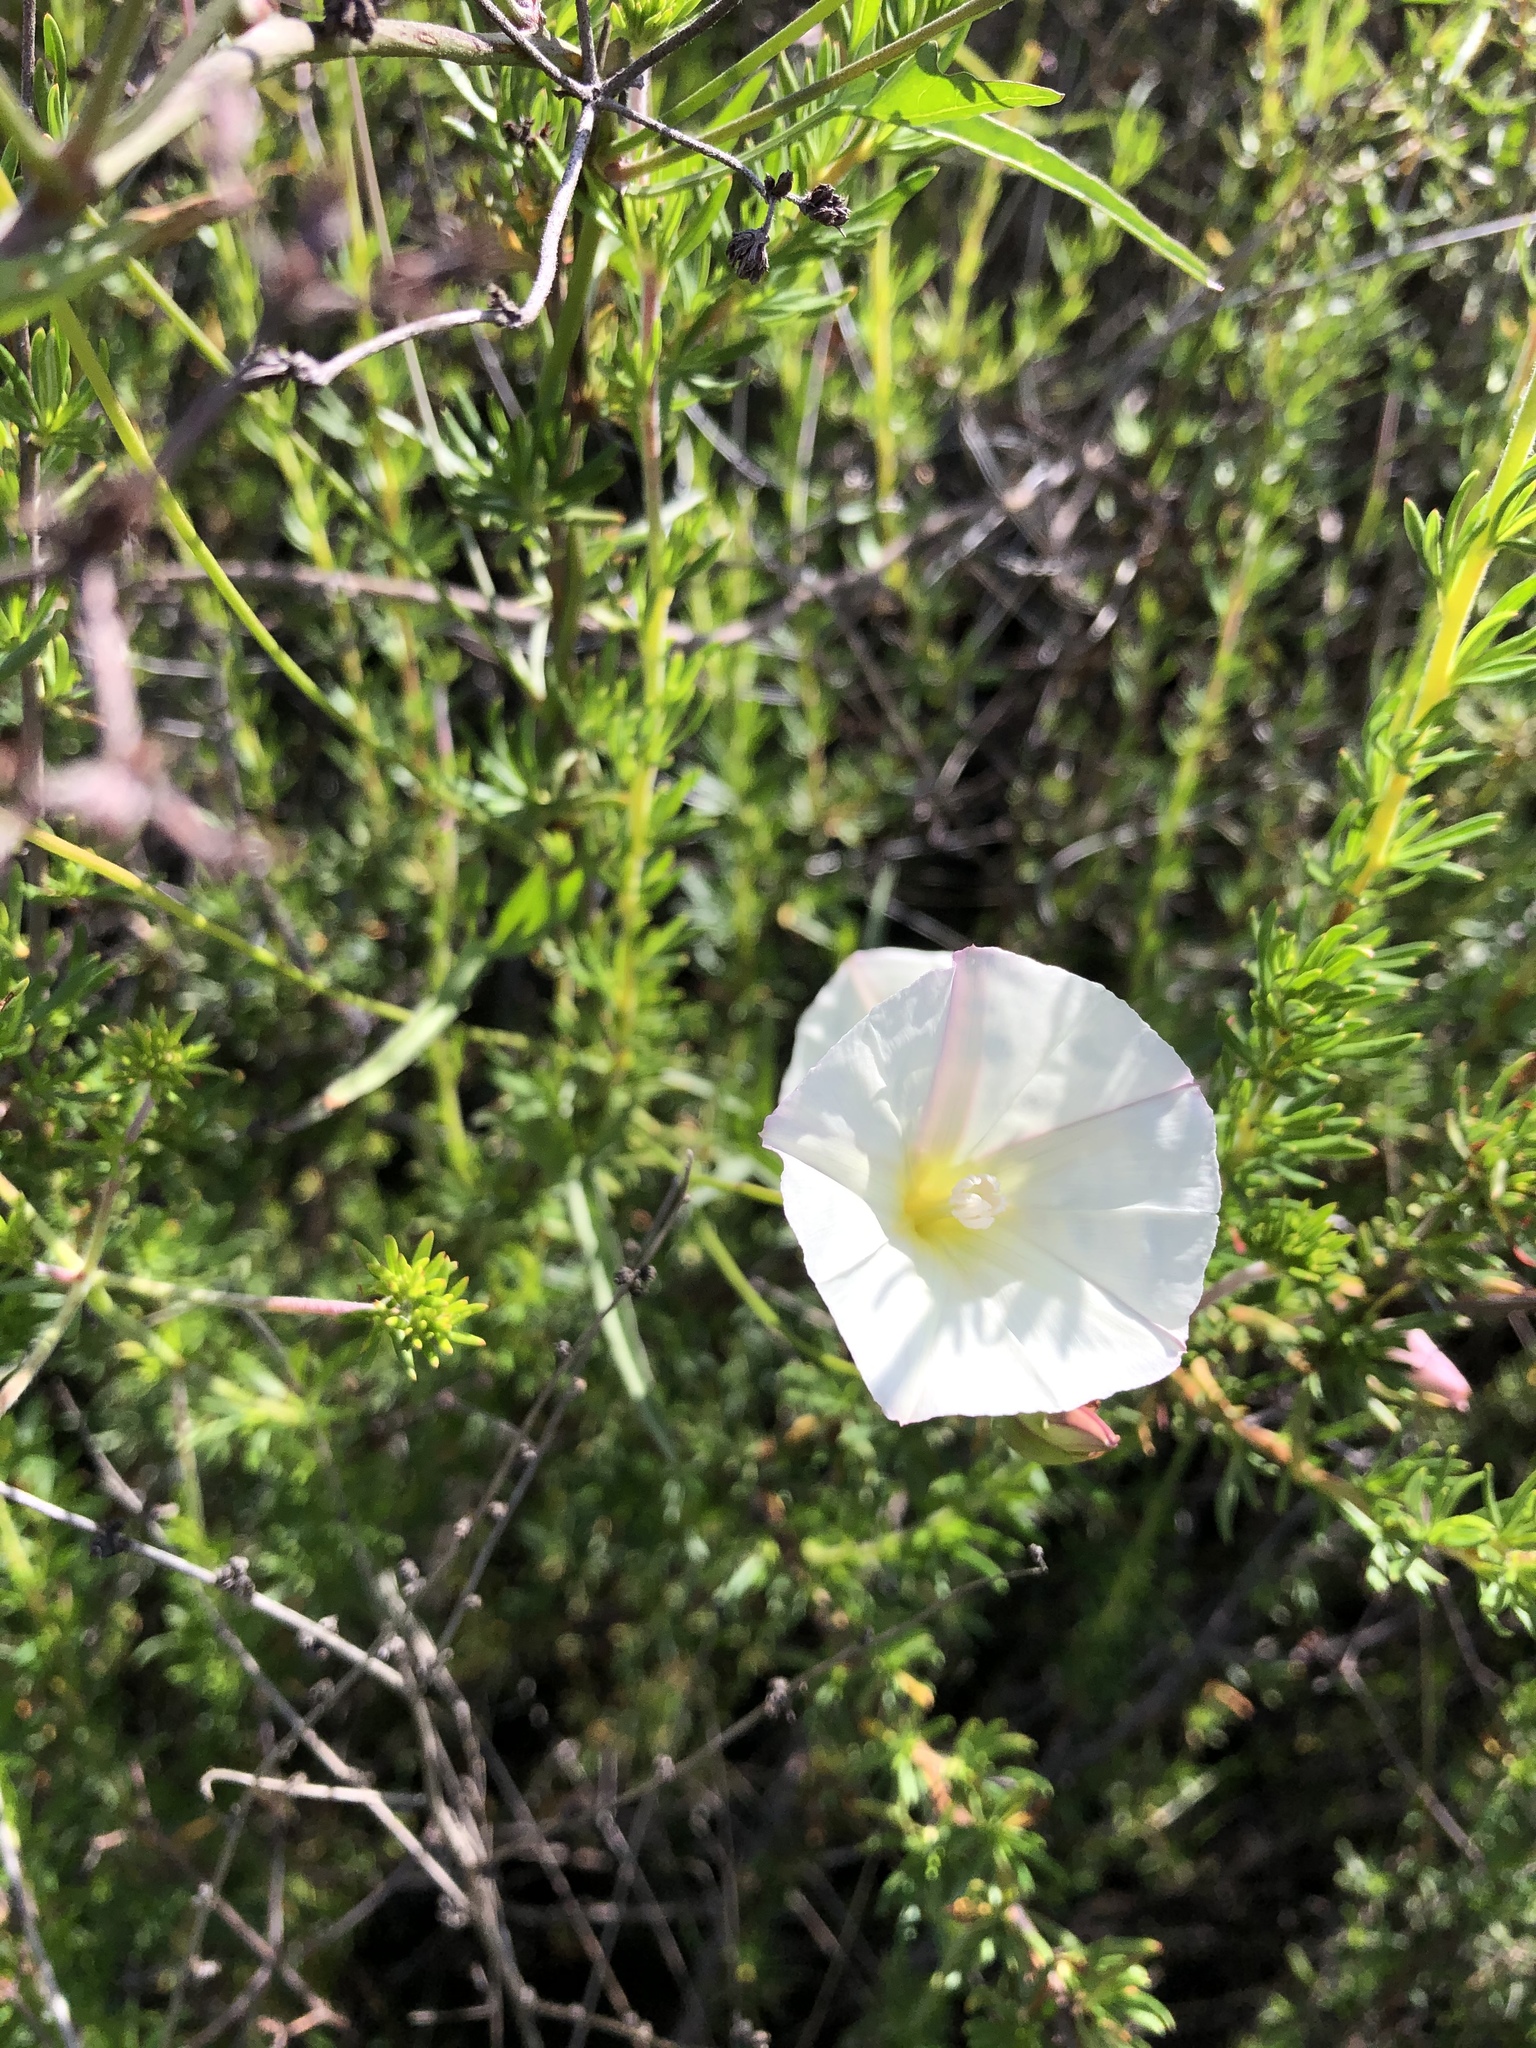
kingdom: Plantae
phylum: Tracheophyta
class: Magnoliopsida
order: Solanales
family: Convolvulaceae
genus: Calystegia
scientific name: Calystegia macrostegia
